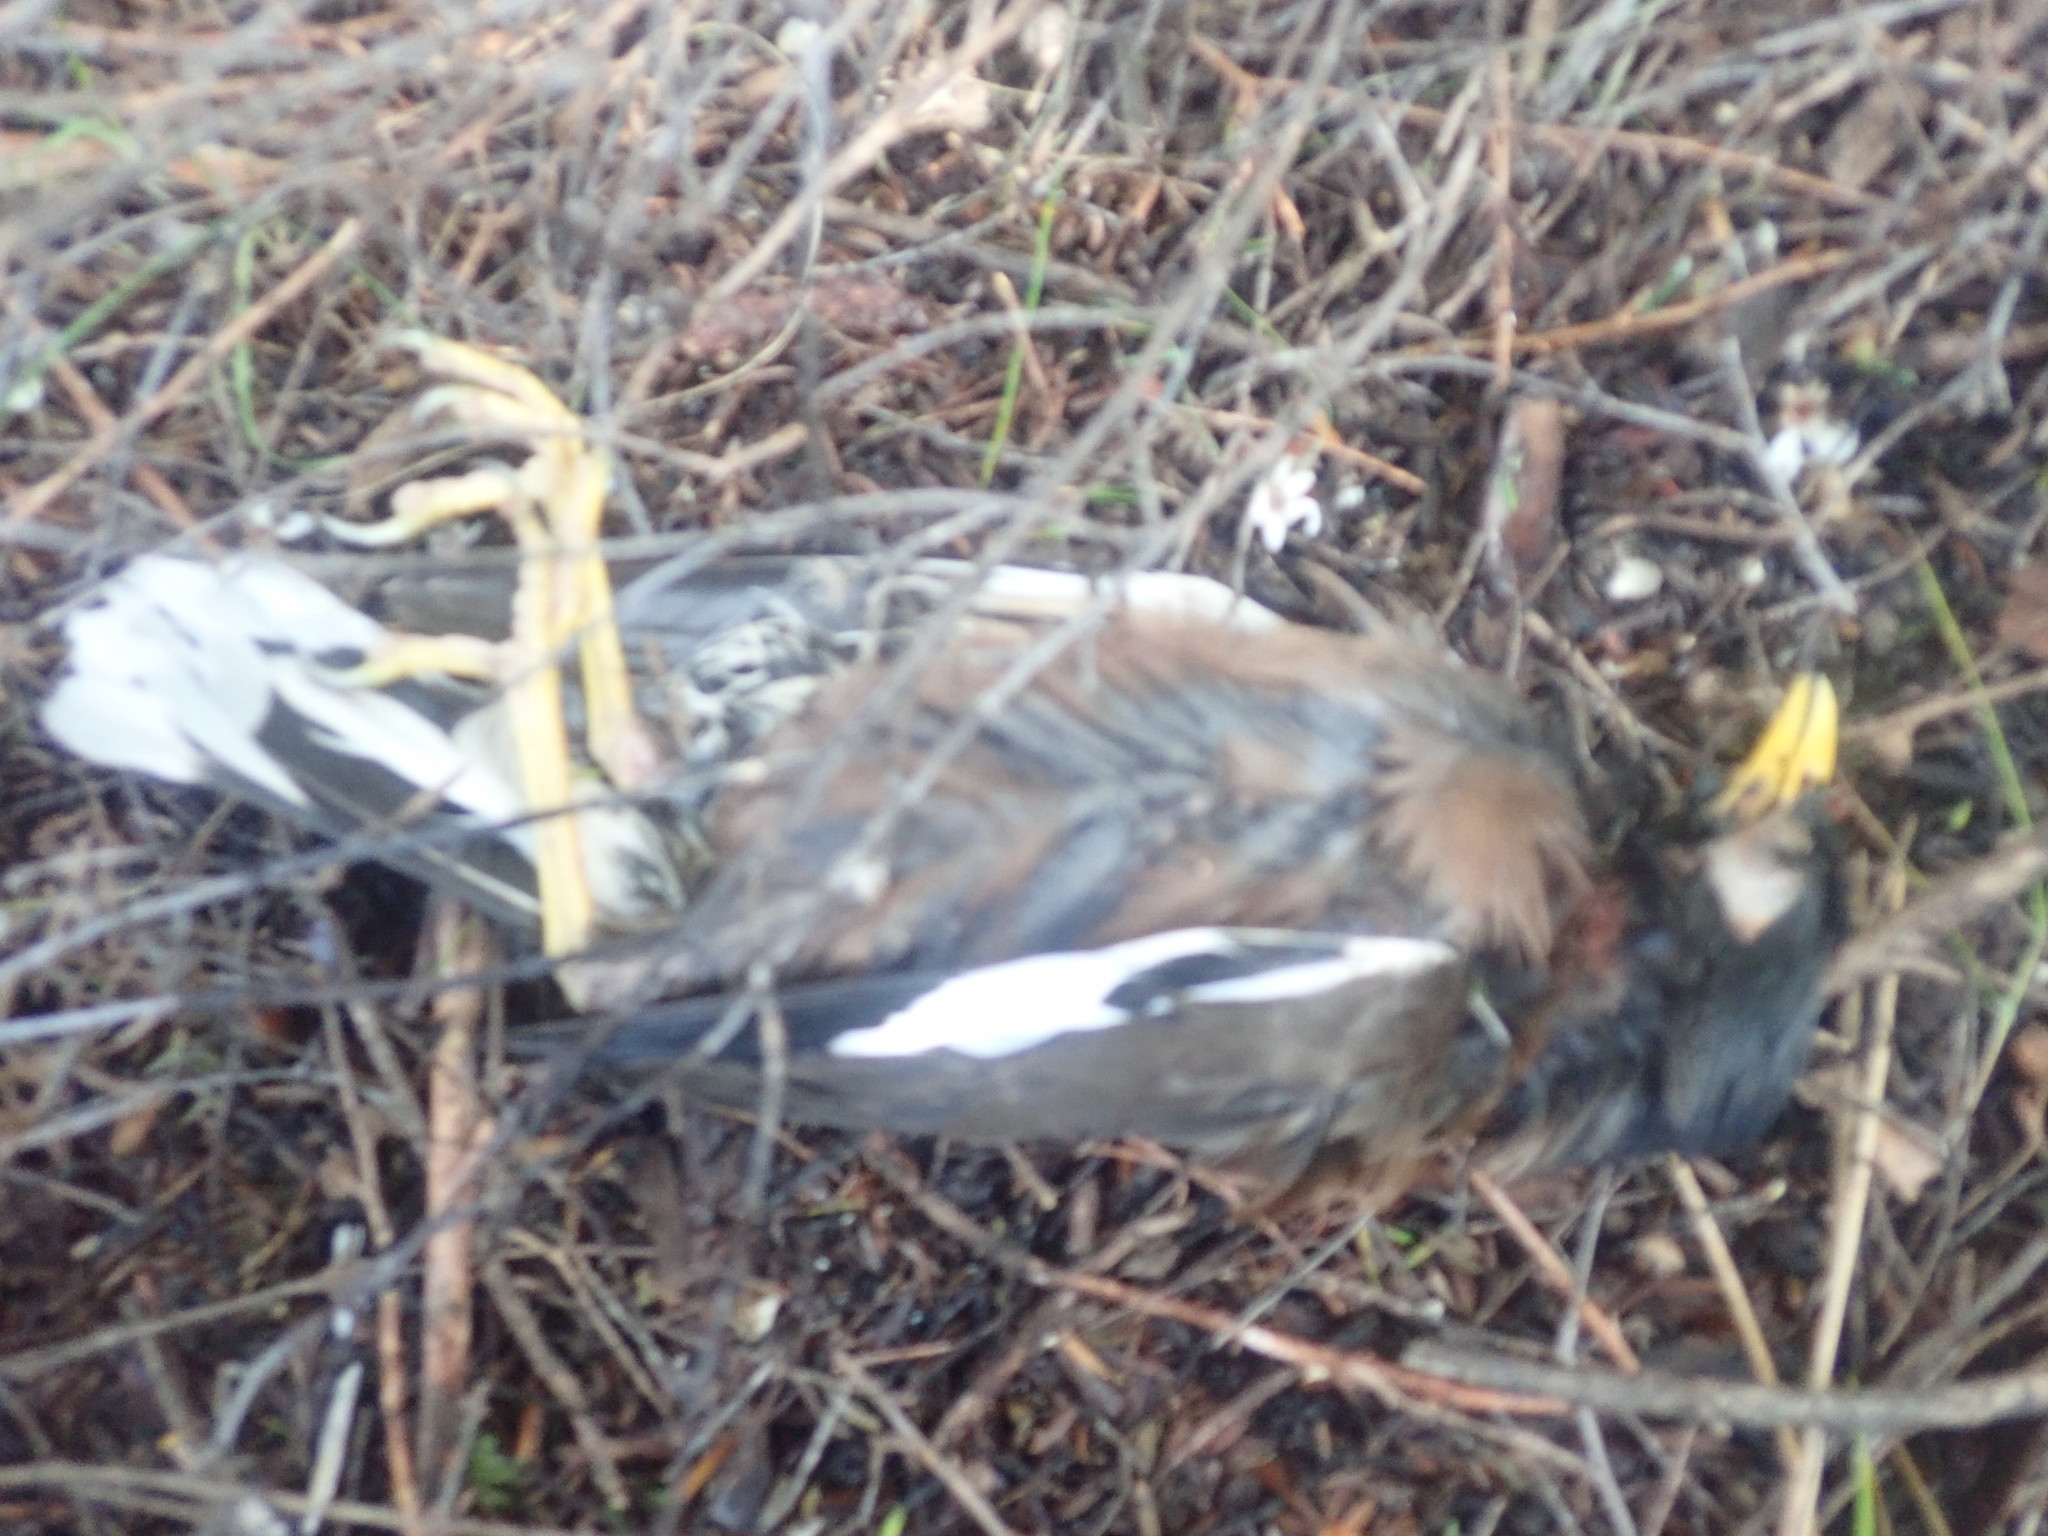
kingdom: Animalia
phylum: Chordata
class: Aves
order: Passeriformes
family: Sturnidae
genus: Acridotheres
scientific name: Acridotheres tristis
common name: Common myna
